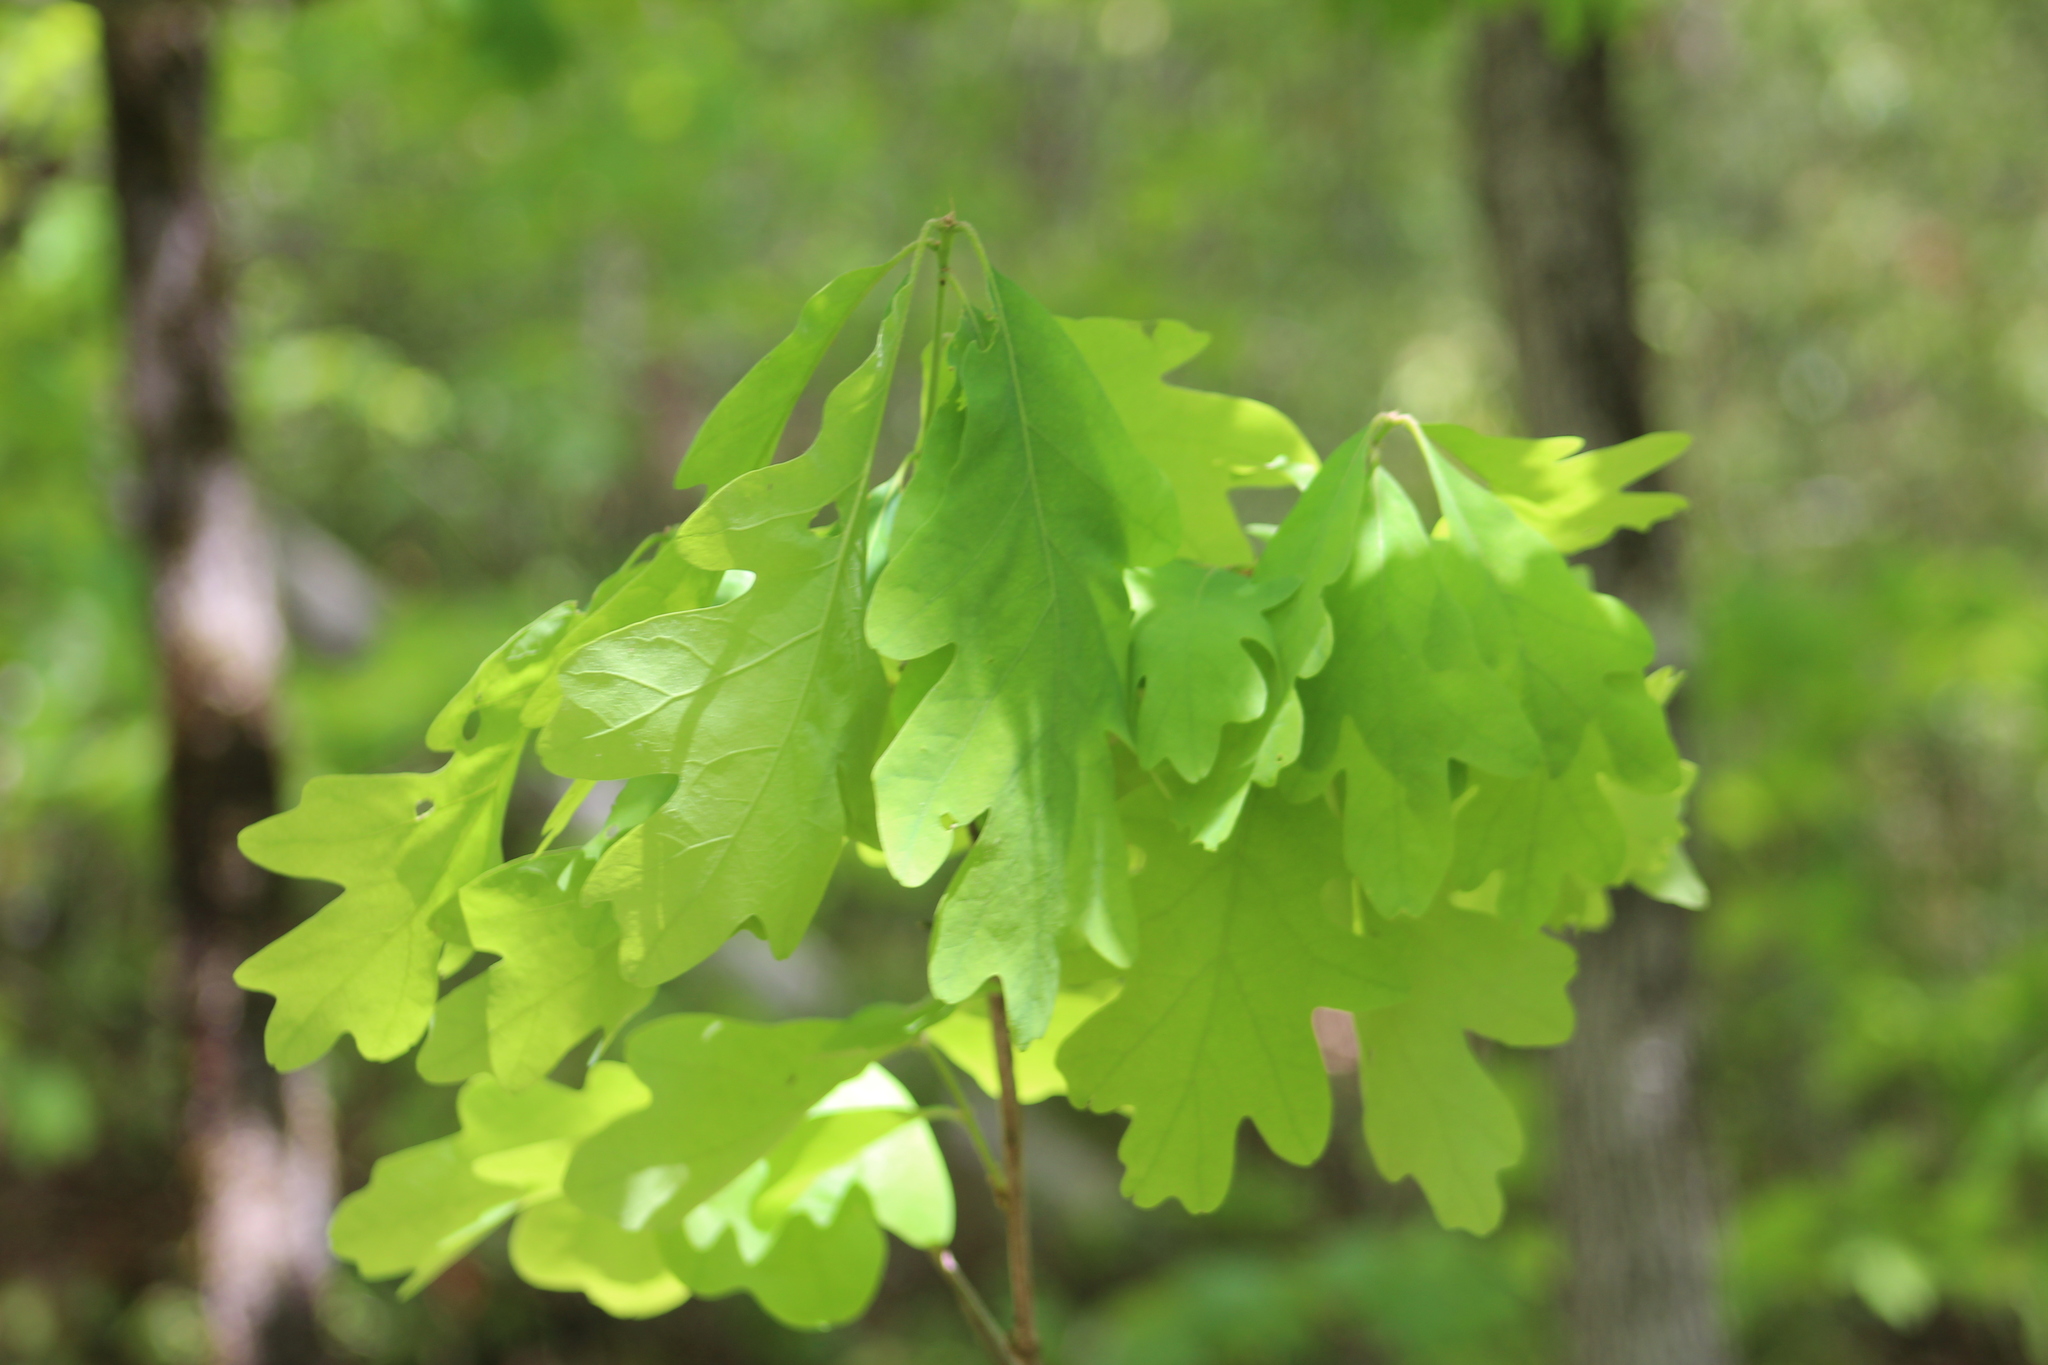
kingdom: Plantae
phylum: Tracheophyta
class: Magnoliopsida
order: Fagales
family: Fagaceae
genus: Quercus
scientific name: Quercus alba
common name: White oak
